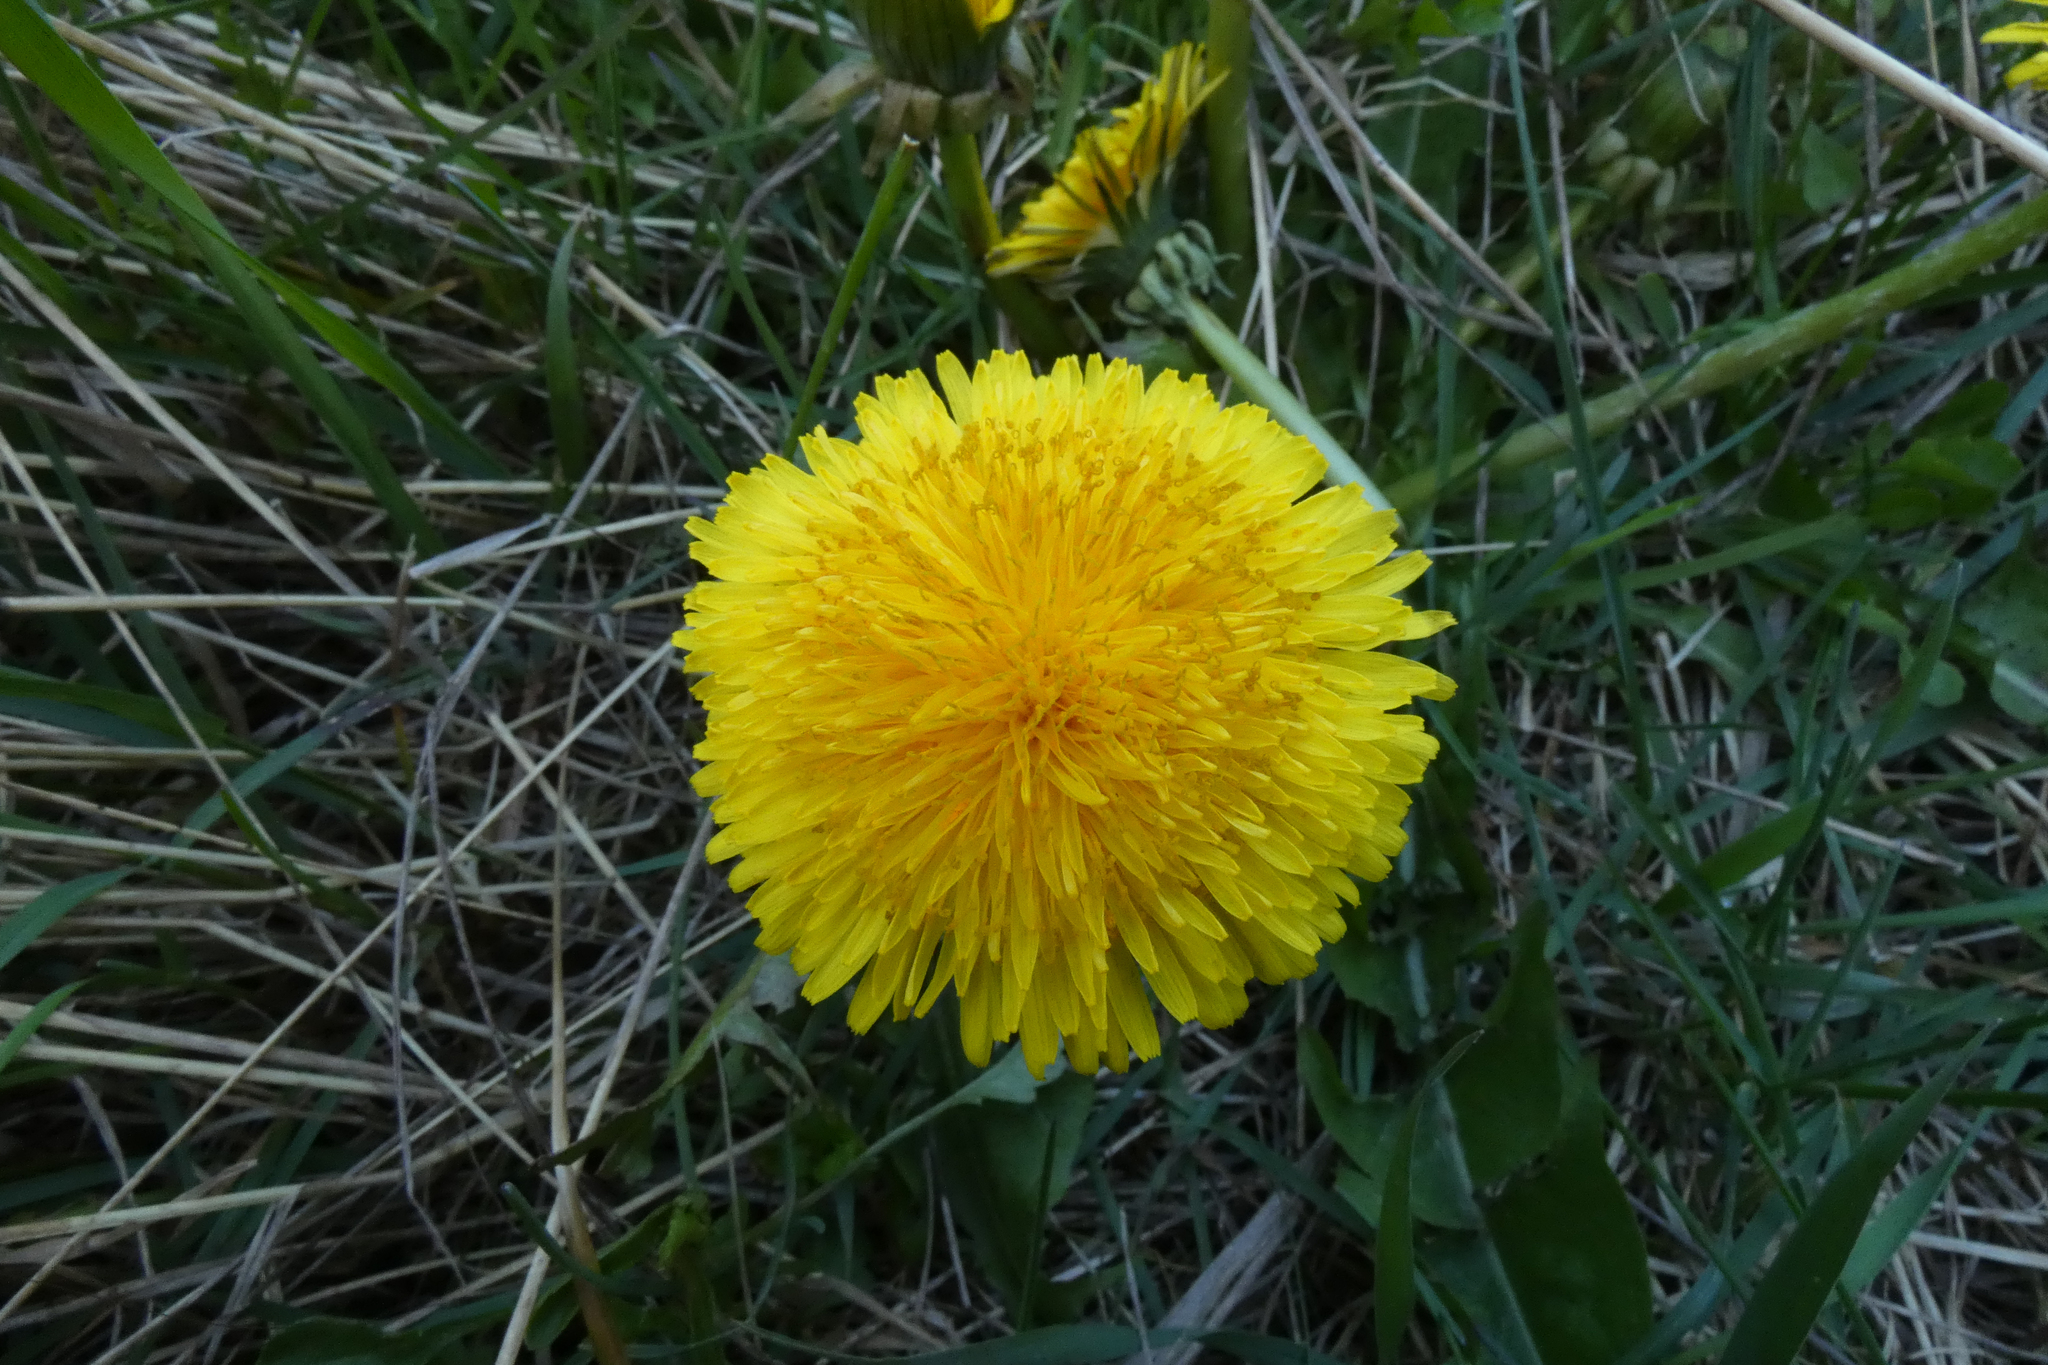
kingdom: Plantae
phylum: Tracheophyta
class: Magnoliopsida
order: Asterales
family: Asteraceae
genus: Taraxacum
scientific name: Taraxacum
